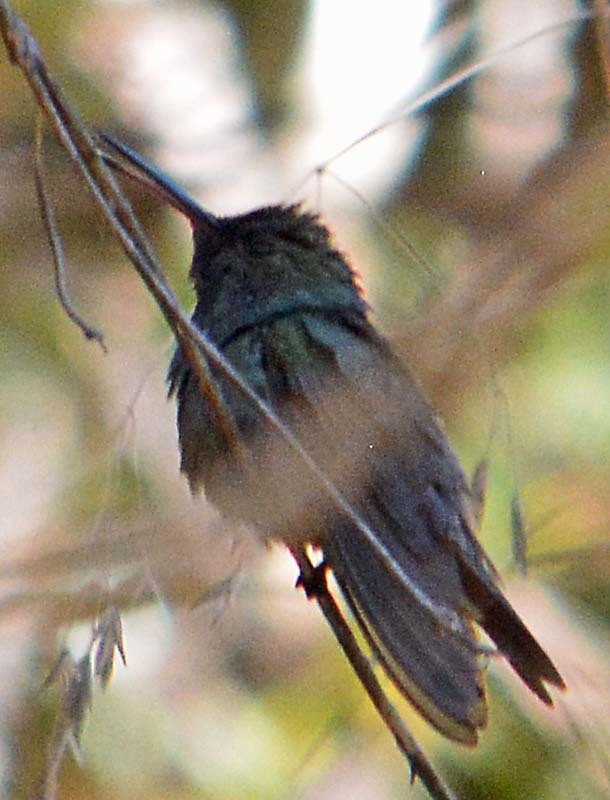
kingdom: Animalia
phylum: Chordata
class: Aves
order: Apodiformes
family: Trochilidae
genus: Saucerottia
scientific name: Saucerottia beryllina
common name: Berylline hummingbird
